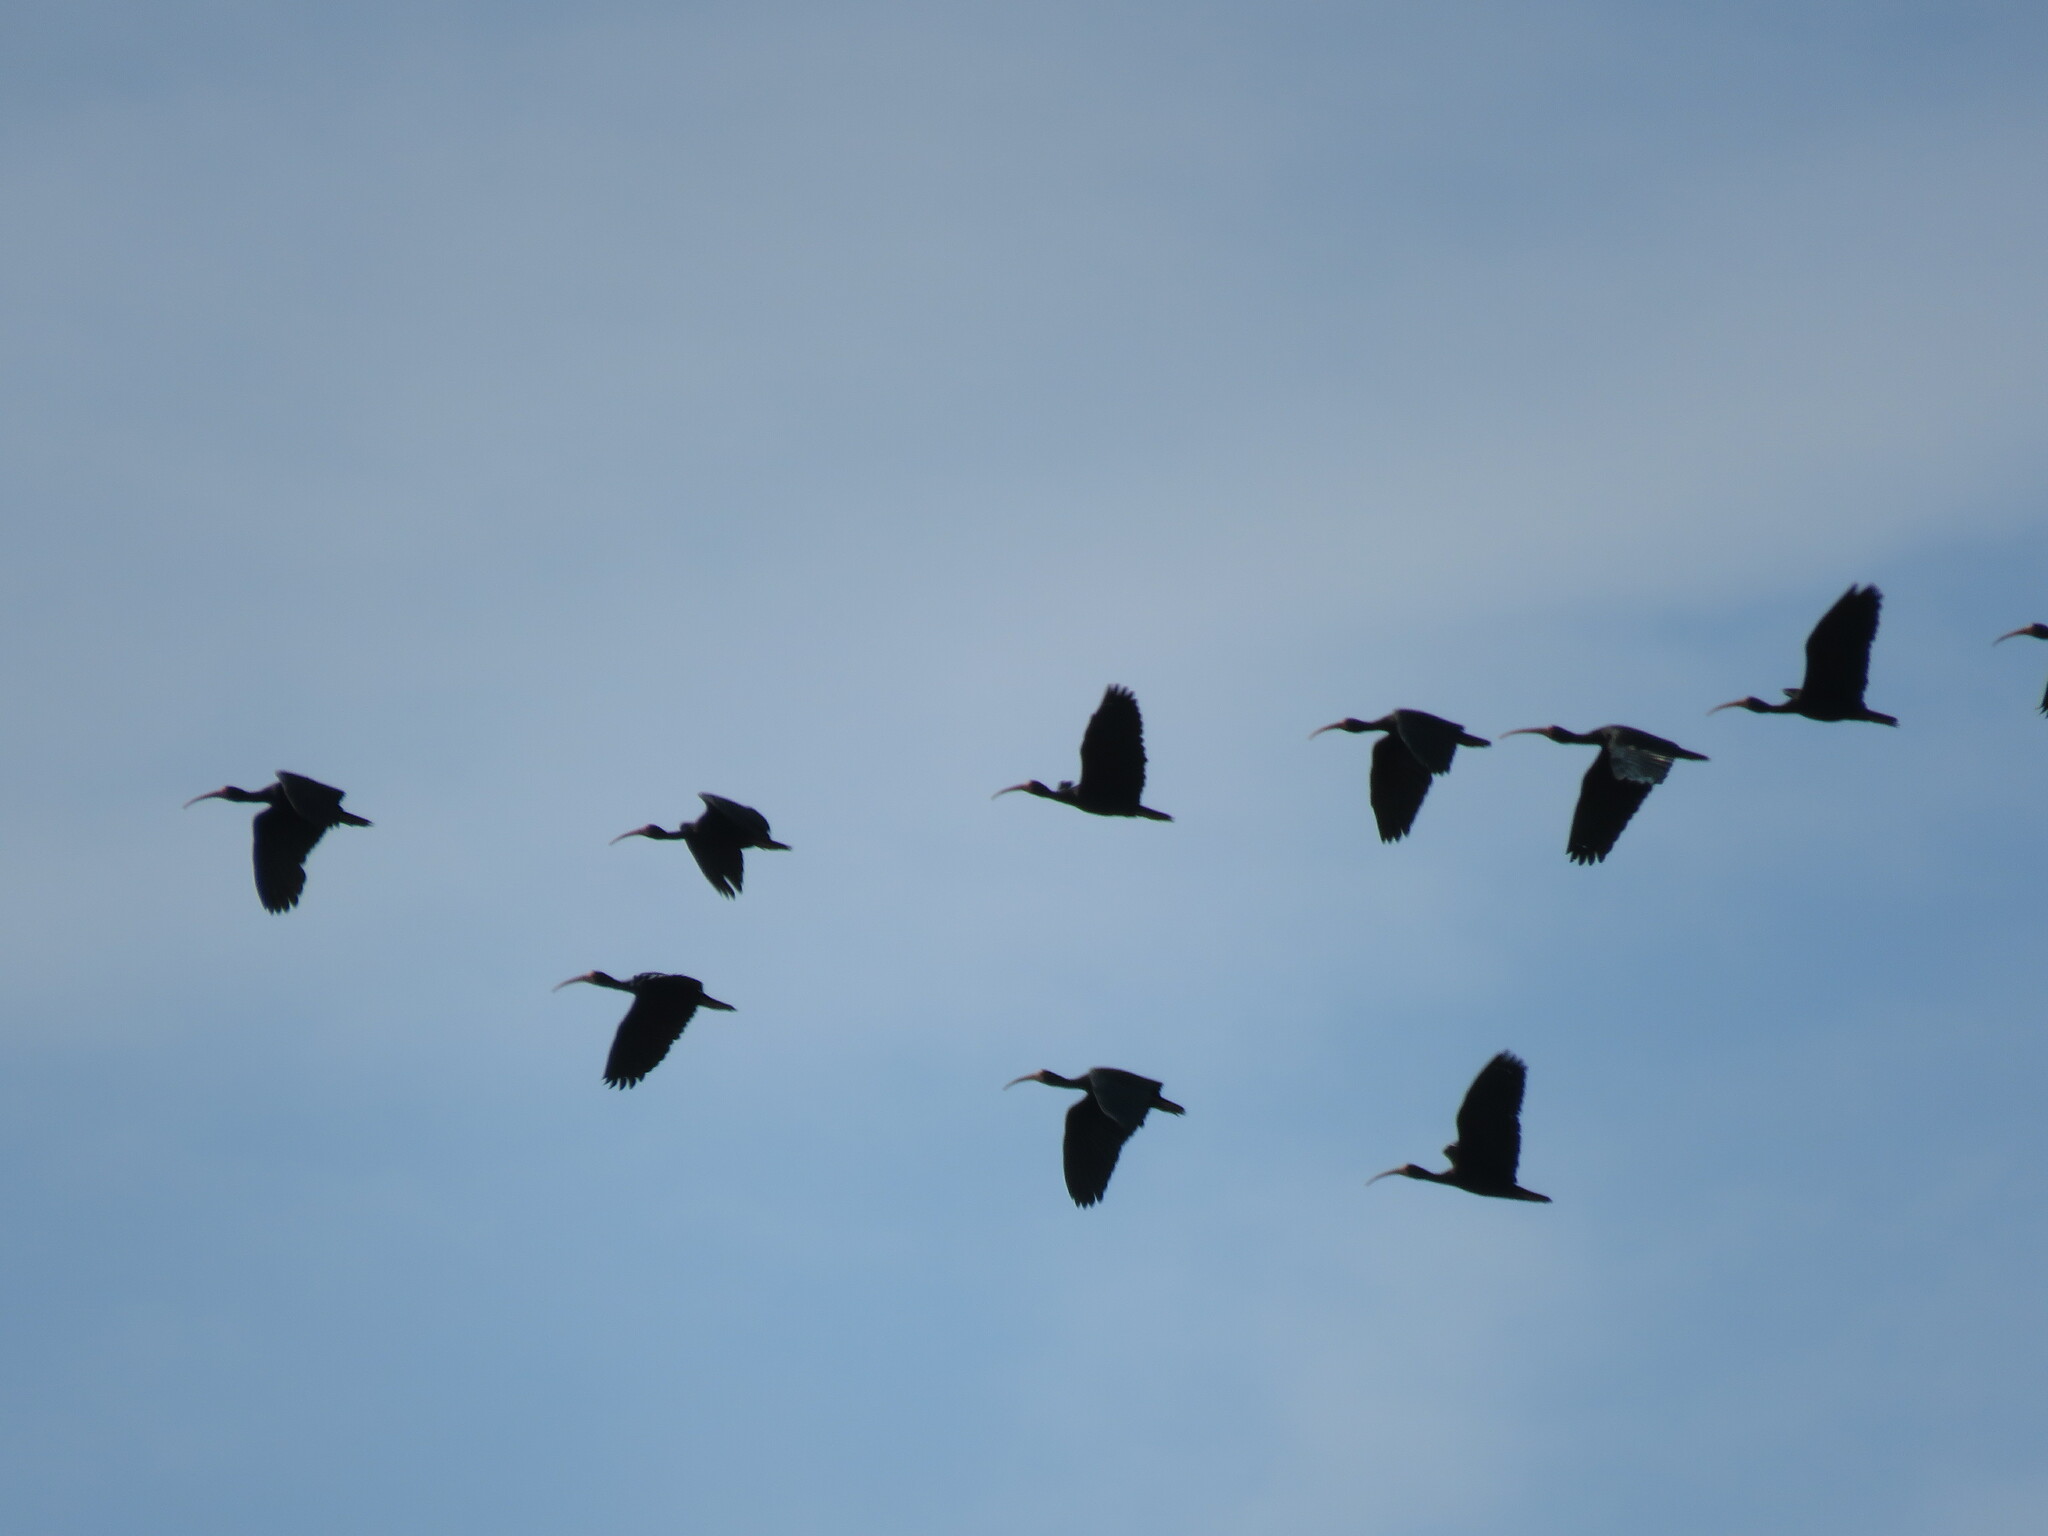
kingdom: Animalia
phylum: Chordata
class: Aves
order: Pelecaniformes
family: Threskiornithidae
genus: Phimosus
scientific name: Phimosus infuscatus
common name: Bare-faced ibis
